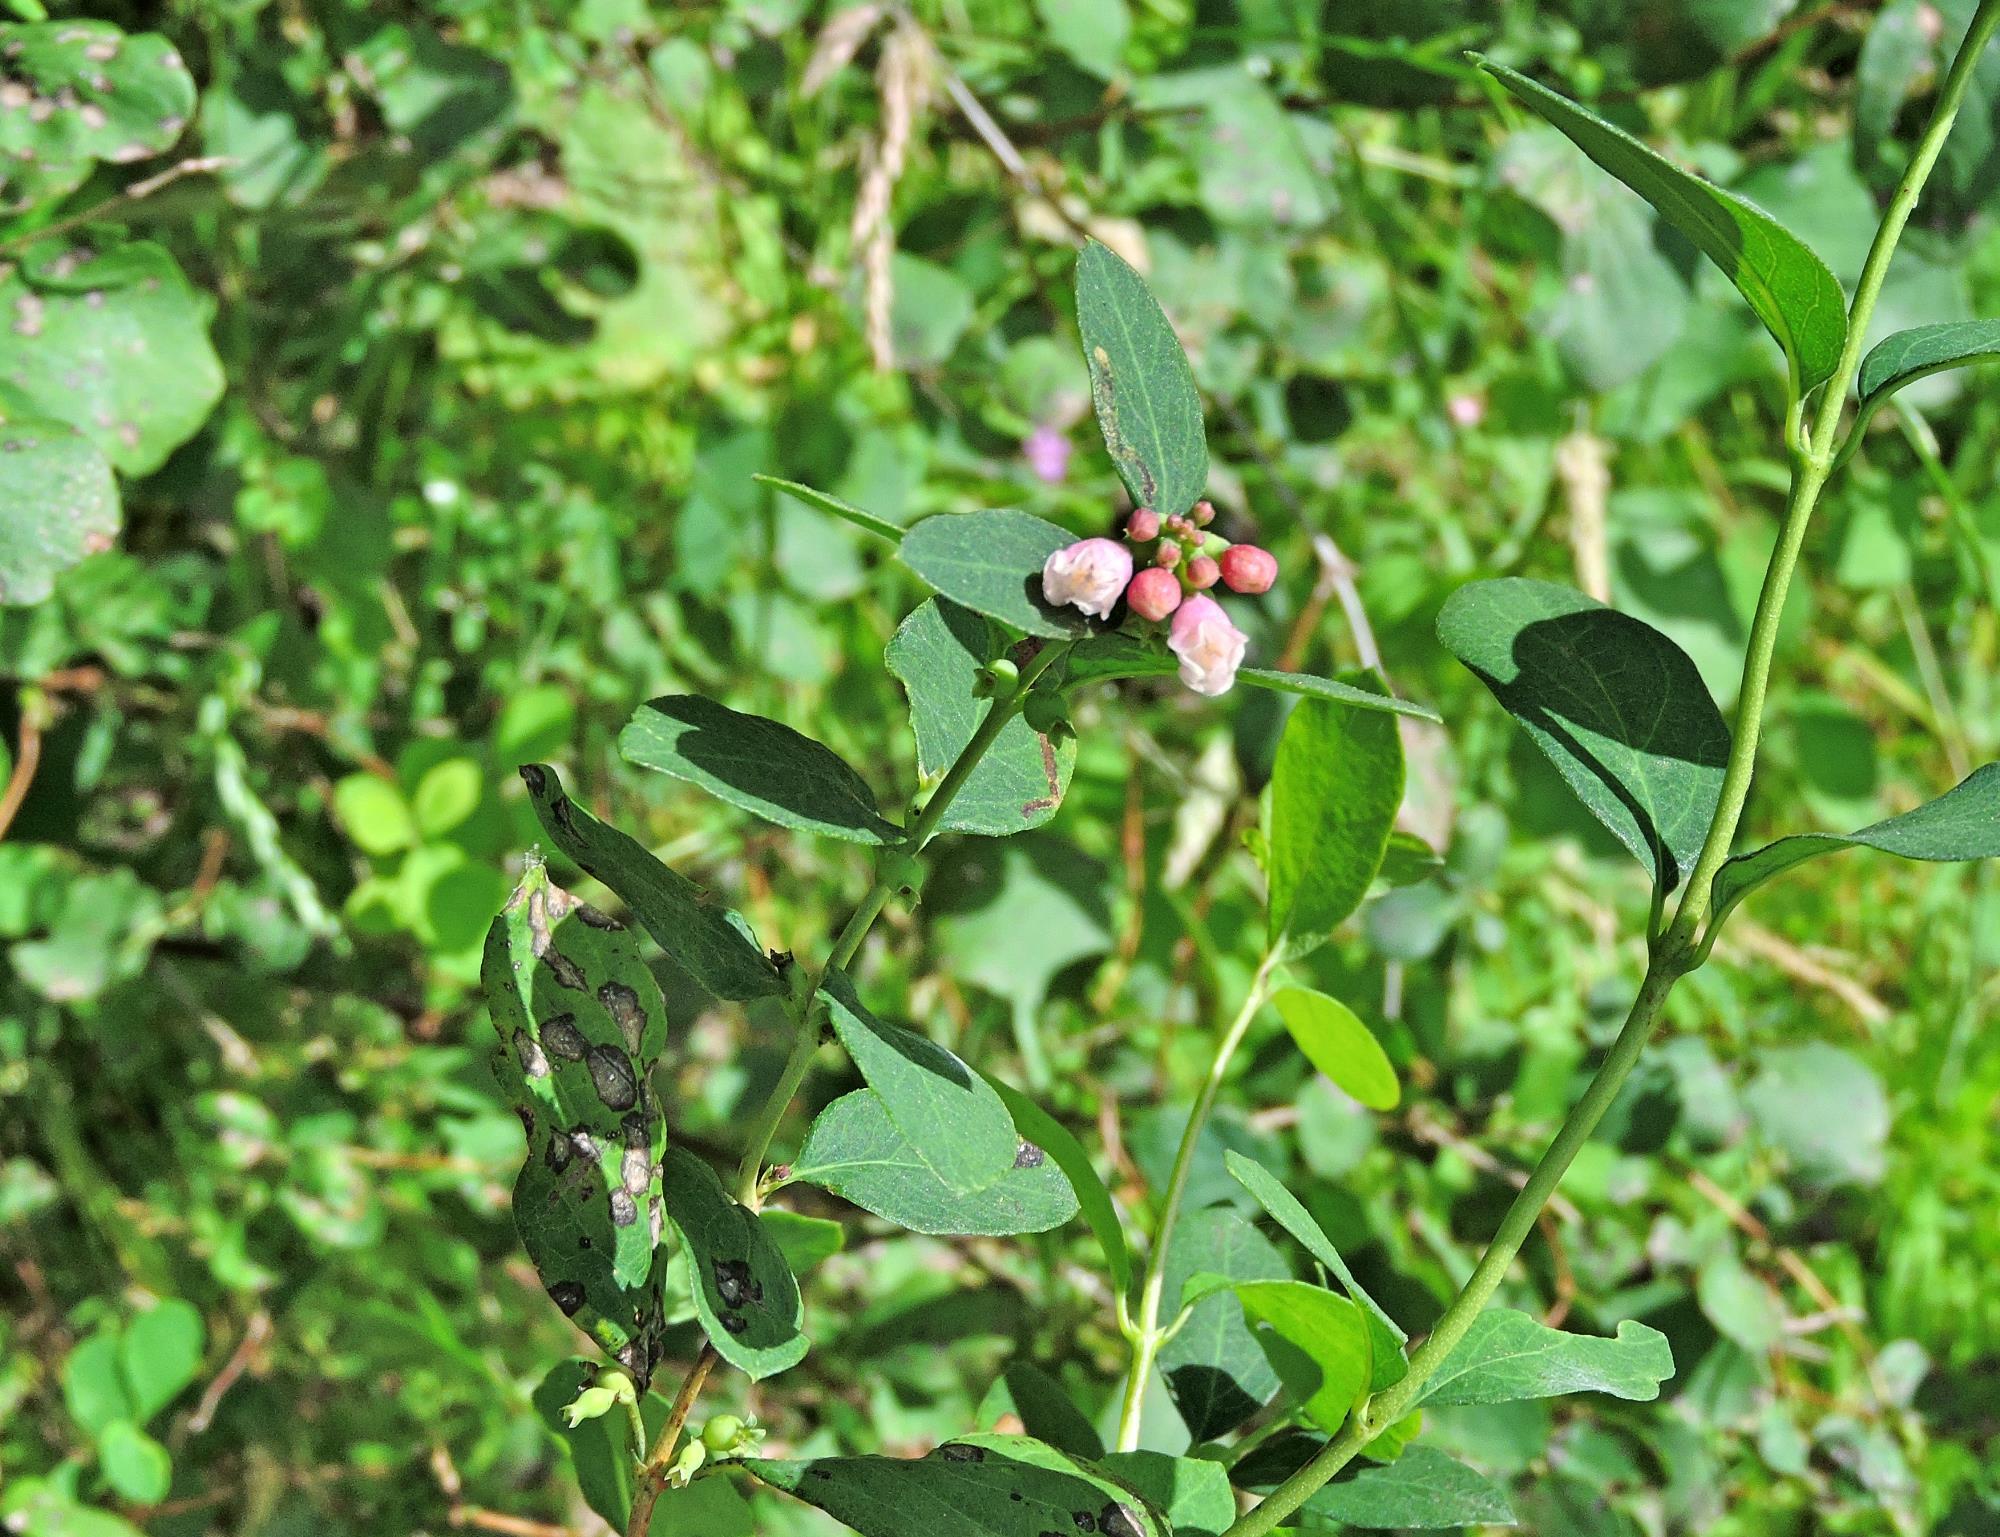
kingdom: Plantae
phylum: Tracheophyta
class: Magnoliopsida
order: Dipsacales
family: Caprifoliaceae
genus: Symphoricarpos
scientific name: Symphoricarpos albus
